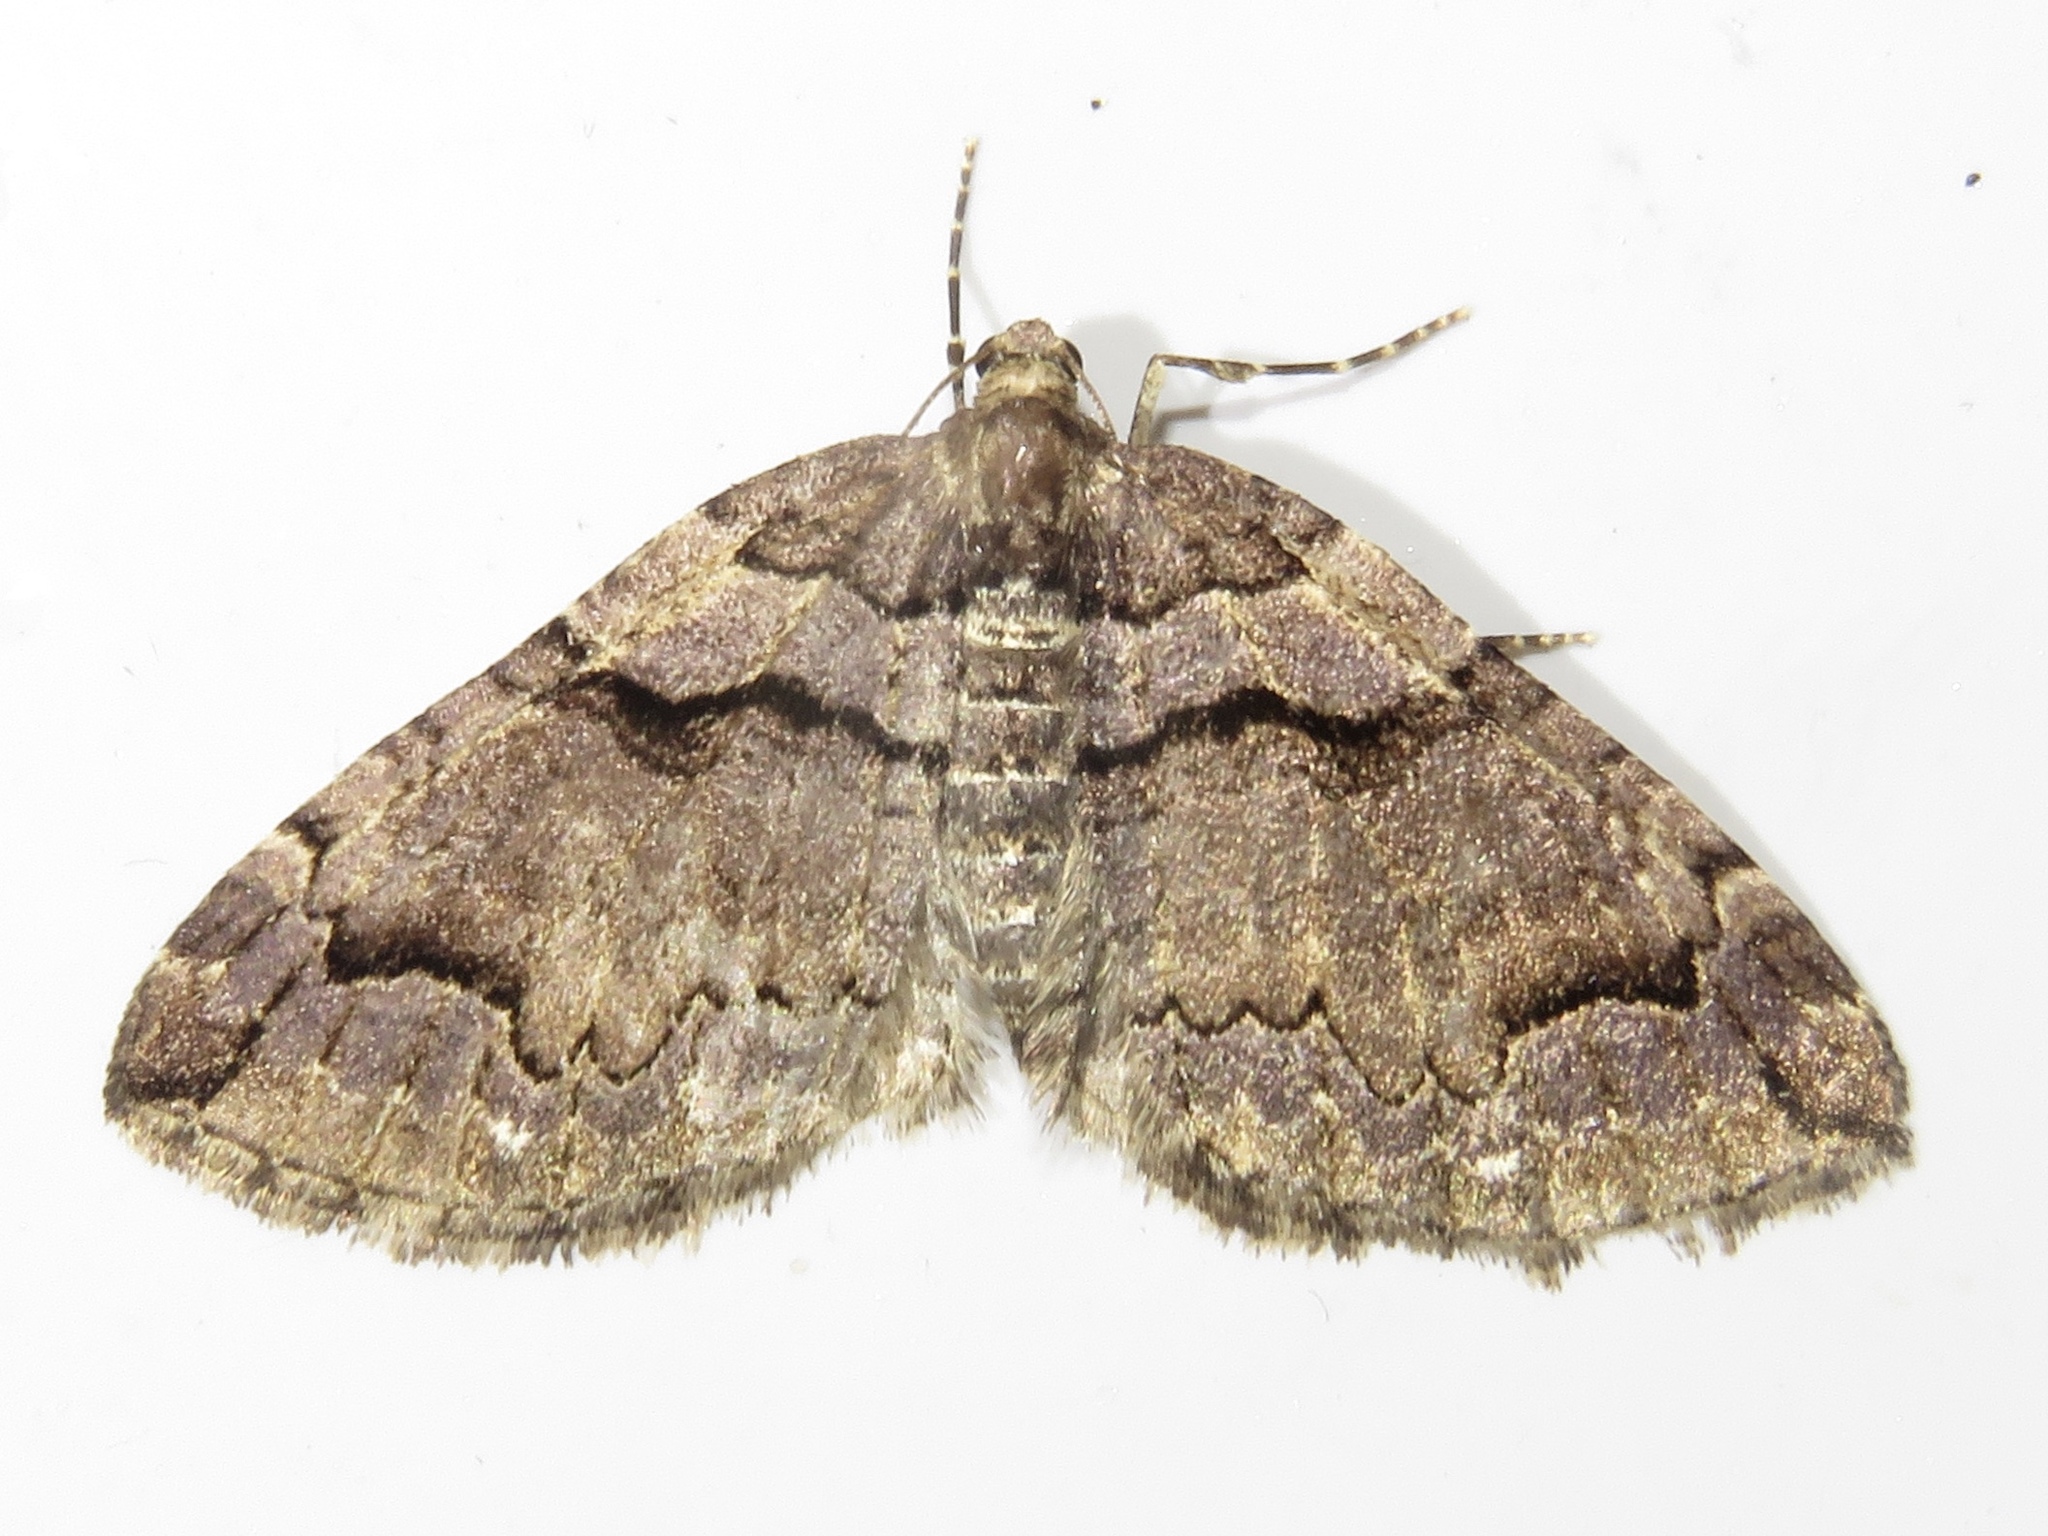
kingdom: Animalia
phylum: Arthropoda
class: Insecta
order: Lepidoptera
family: Geometridae
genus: Anticlea
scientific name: Anticlea vasiliata
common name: Variable carpet
